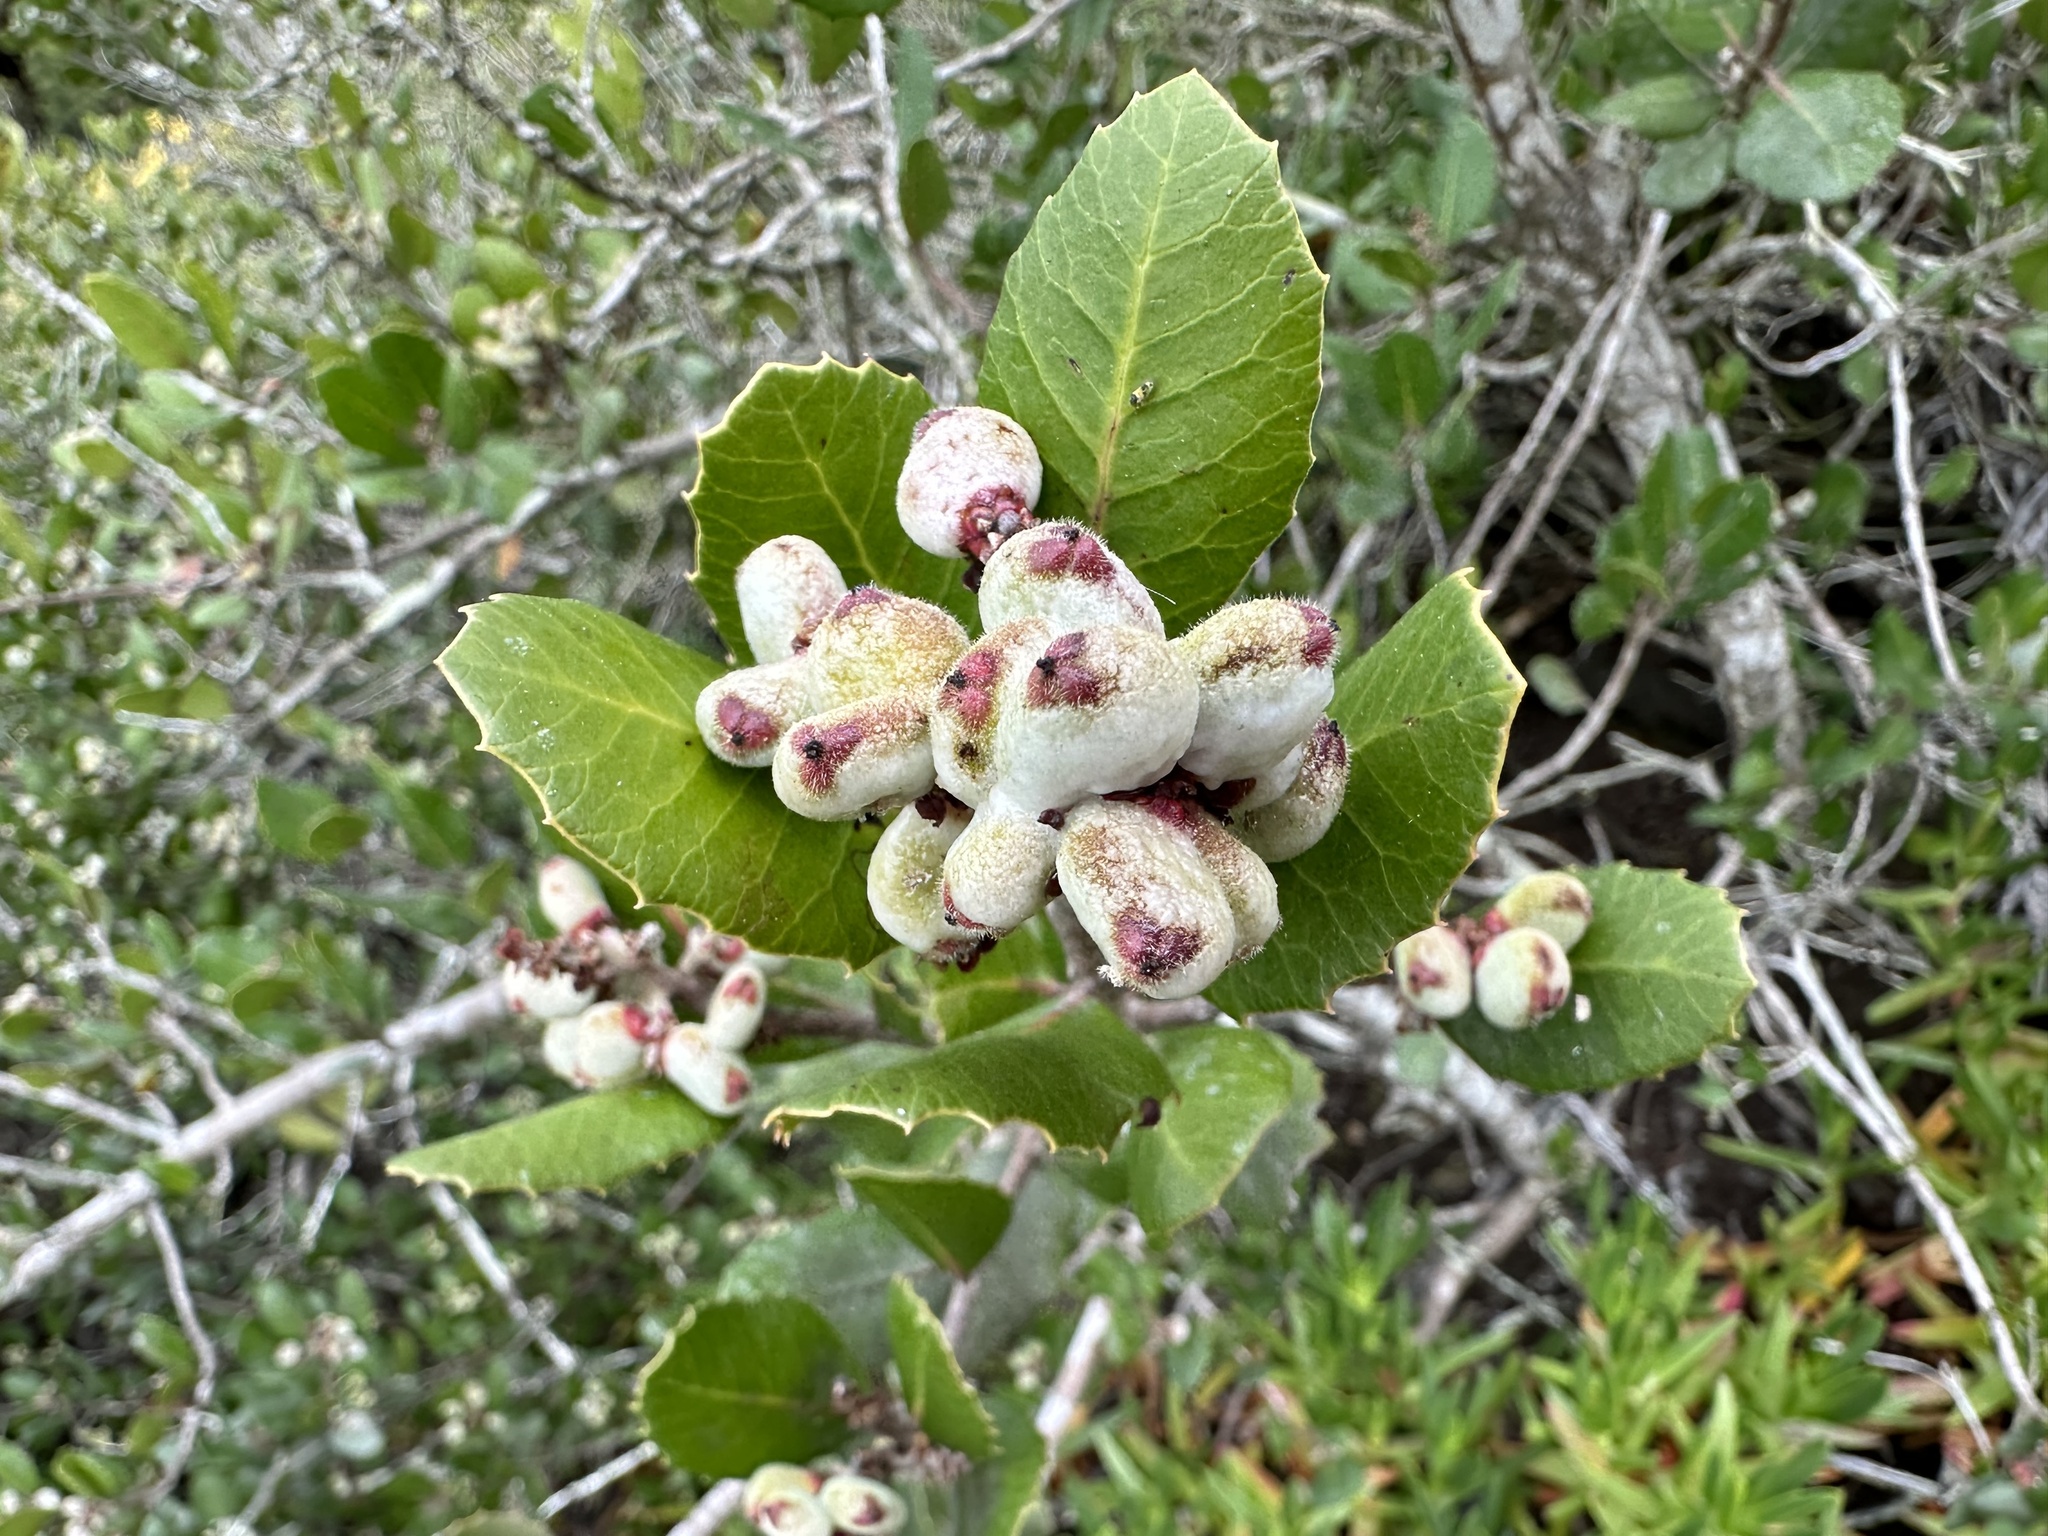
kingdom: Plantae
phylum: Tracheophyta
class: Magnoliopsida
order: Sapindales
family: Anacardiaceae
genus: Rhus
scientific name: Rhus integrifolia
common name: Lemonade sumac
